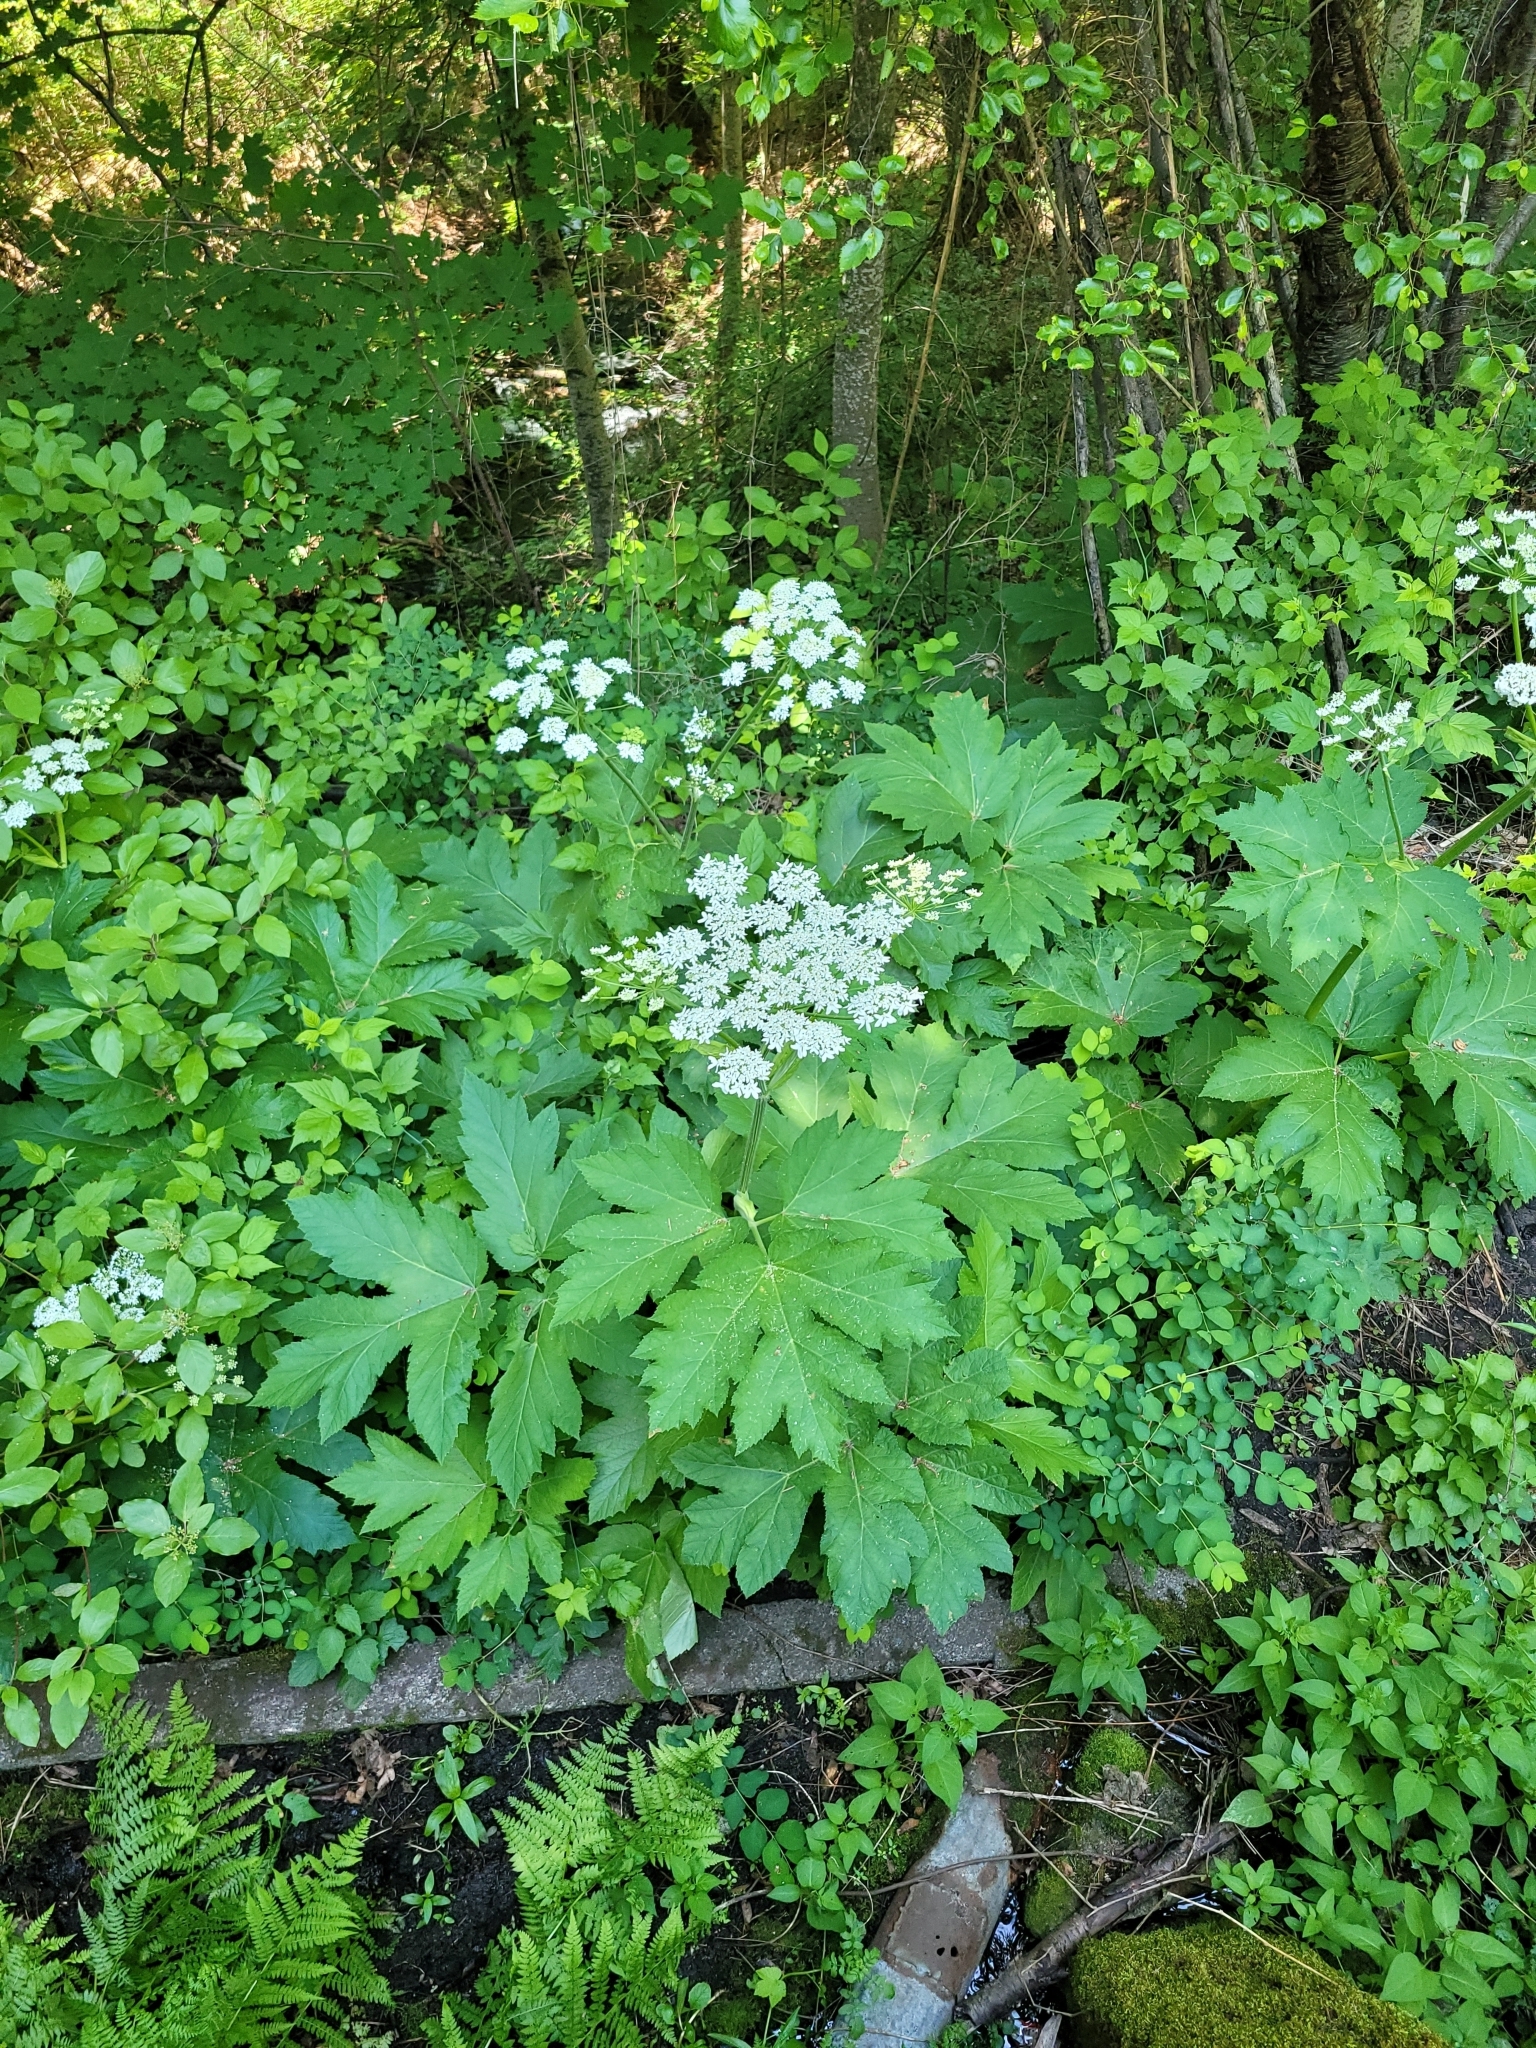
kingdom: Plantae
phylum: Tracheophyta
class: Magnoliopsida
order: Apiales
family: Apiaceae
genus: Heracleum
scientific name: Heracleum maximum
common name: American cow parsnip
